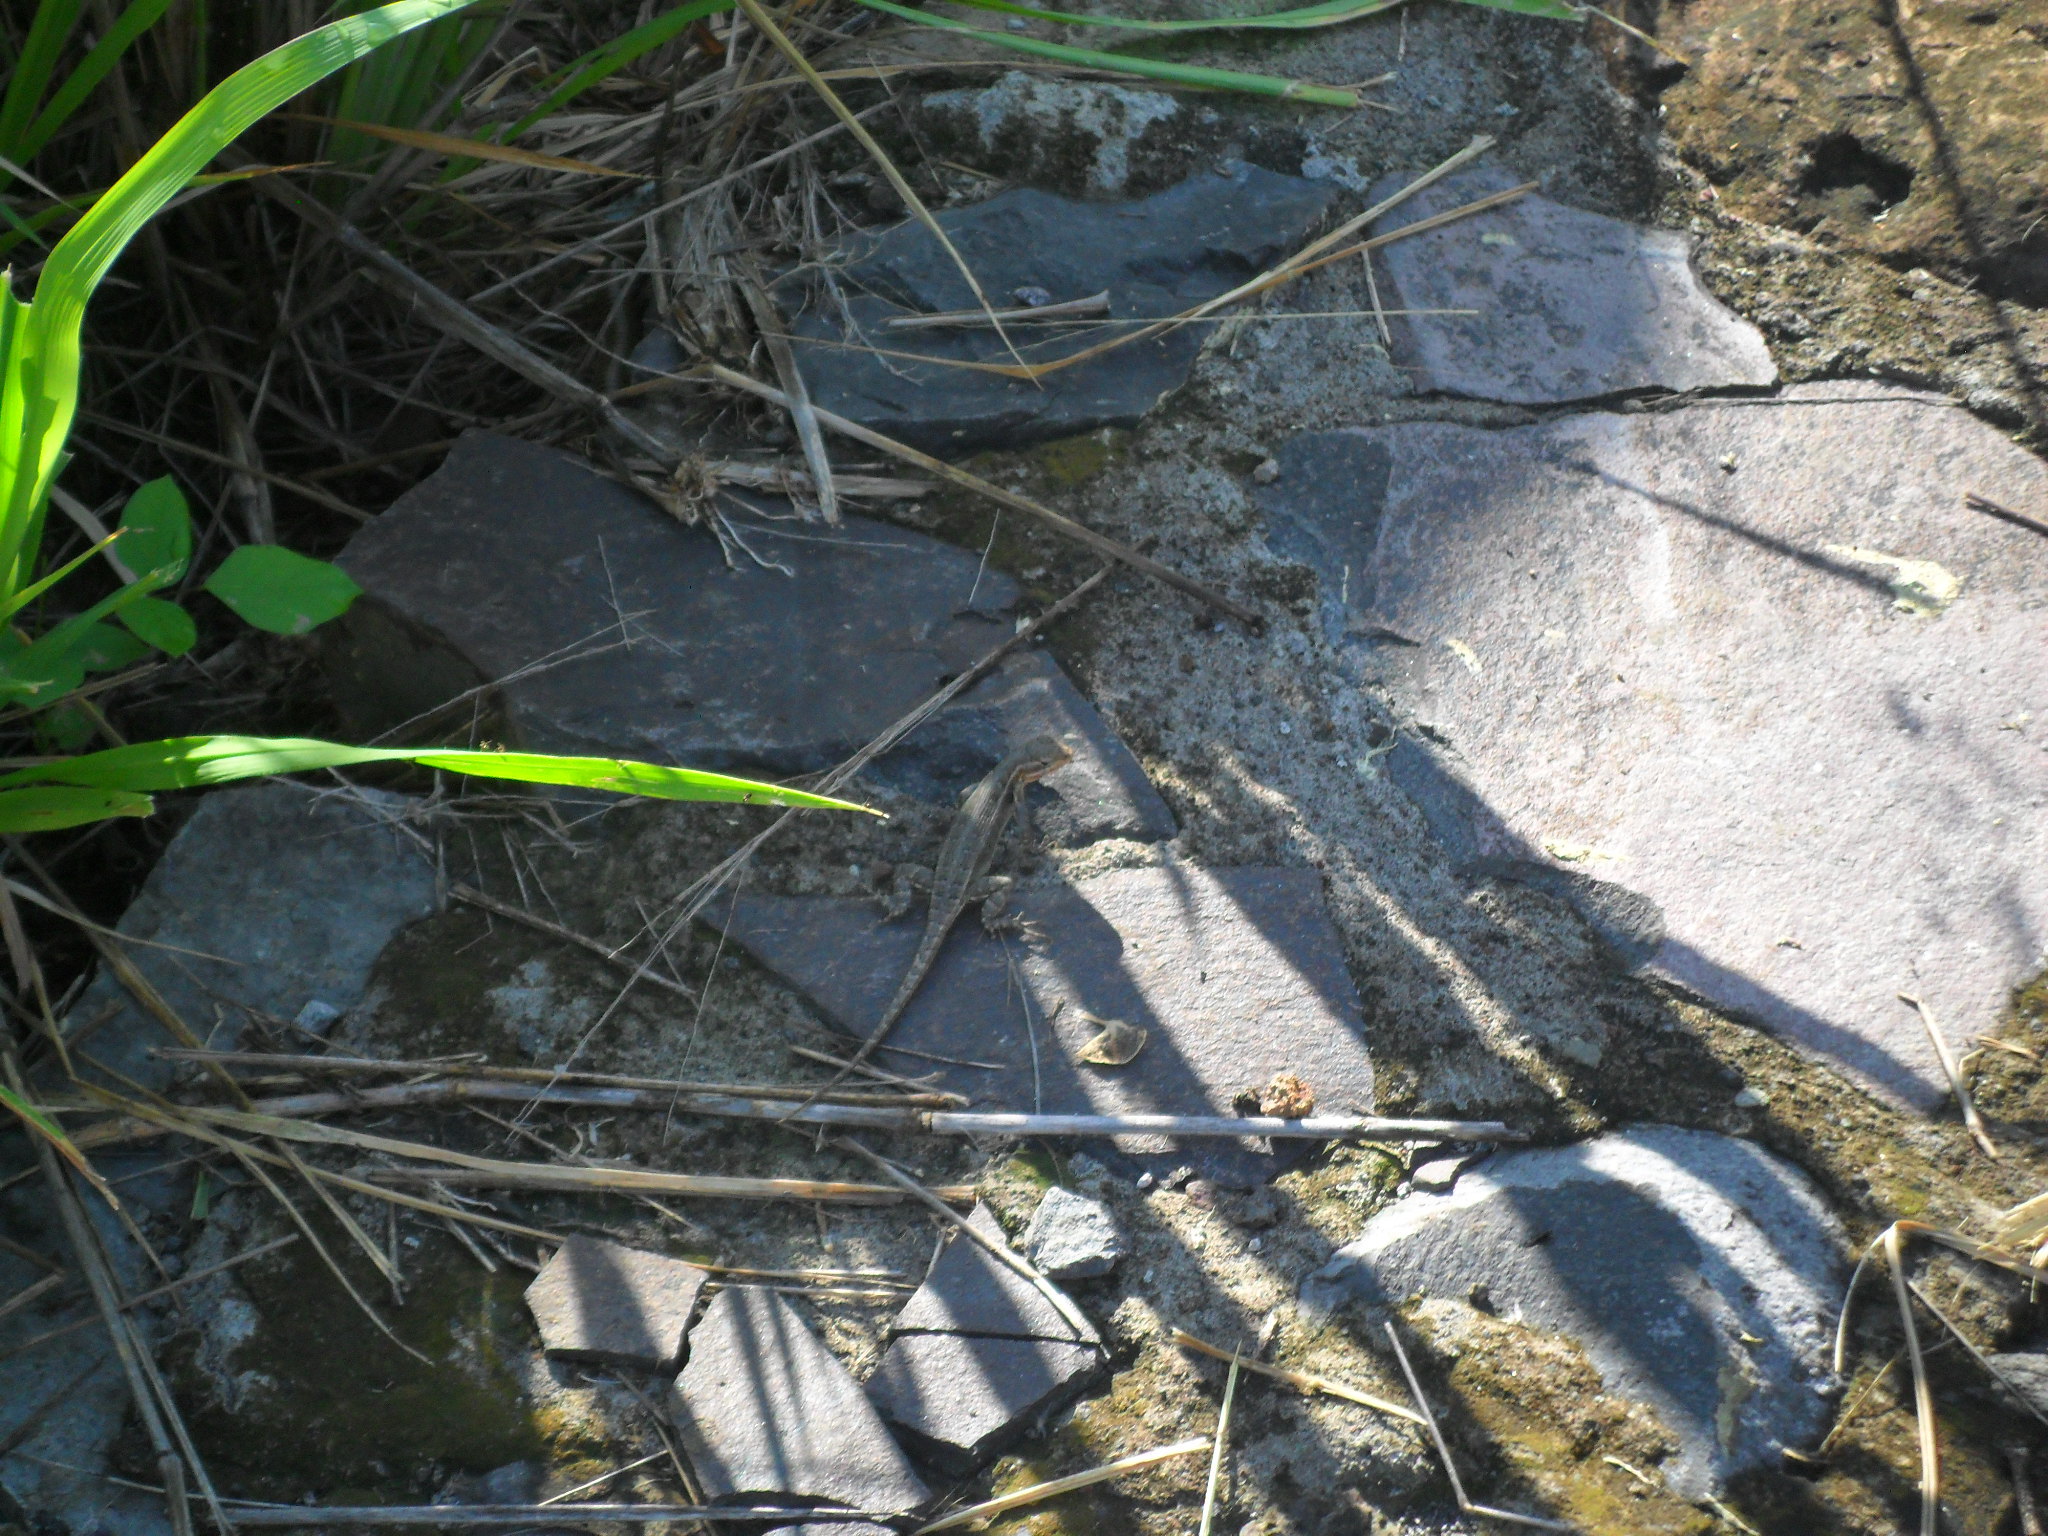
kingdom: Animalia
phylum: Chordata
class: Squamata
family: Phrynosomatidae
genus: Sceloporus
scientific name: Sceloporus variabilis
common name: Rosebelly lizard
